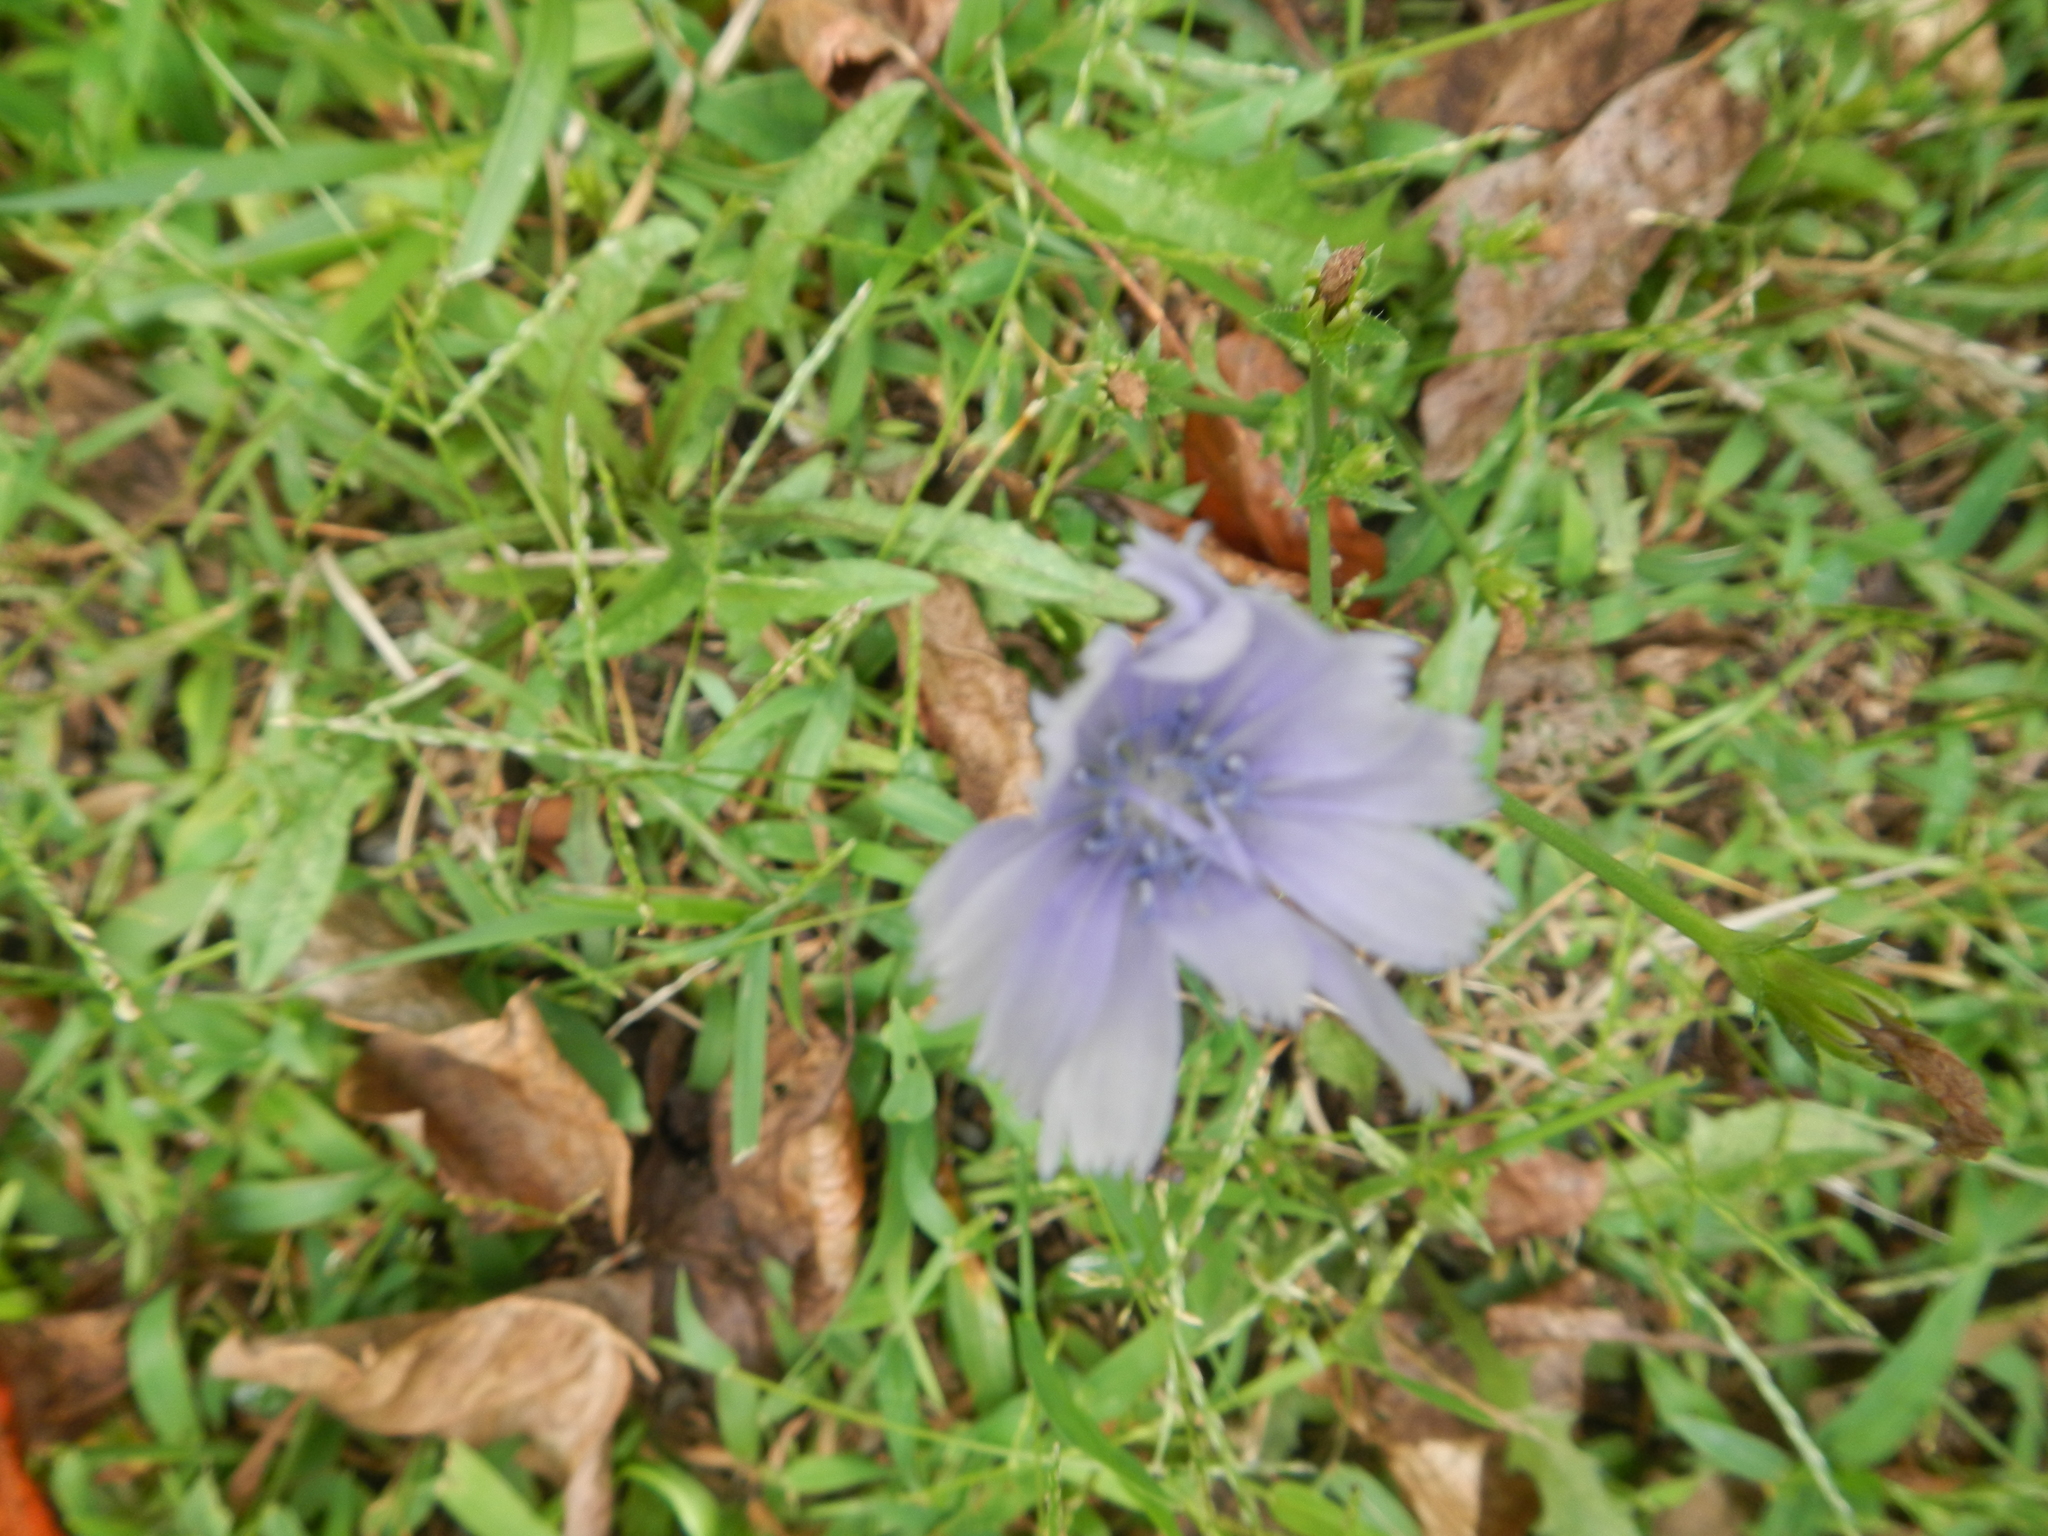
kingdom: Plantae
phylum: Tracheophyta
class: Magnoliopsida
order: Asterales
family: Asteraceae
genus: Cichorium
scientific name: Cichorium intybus
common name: Chicory
